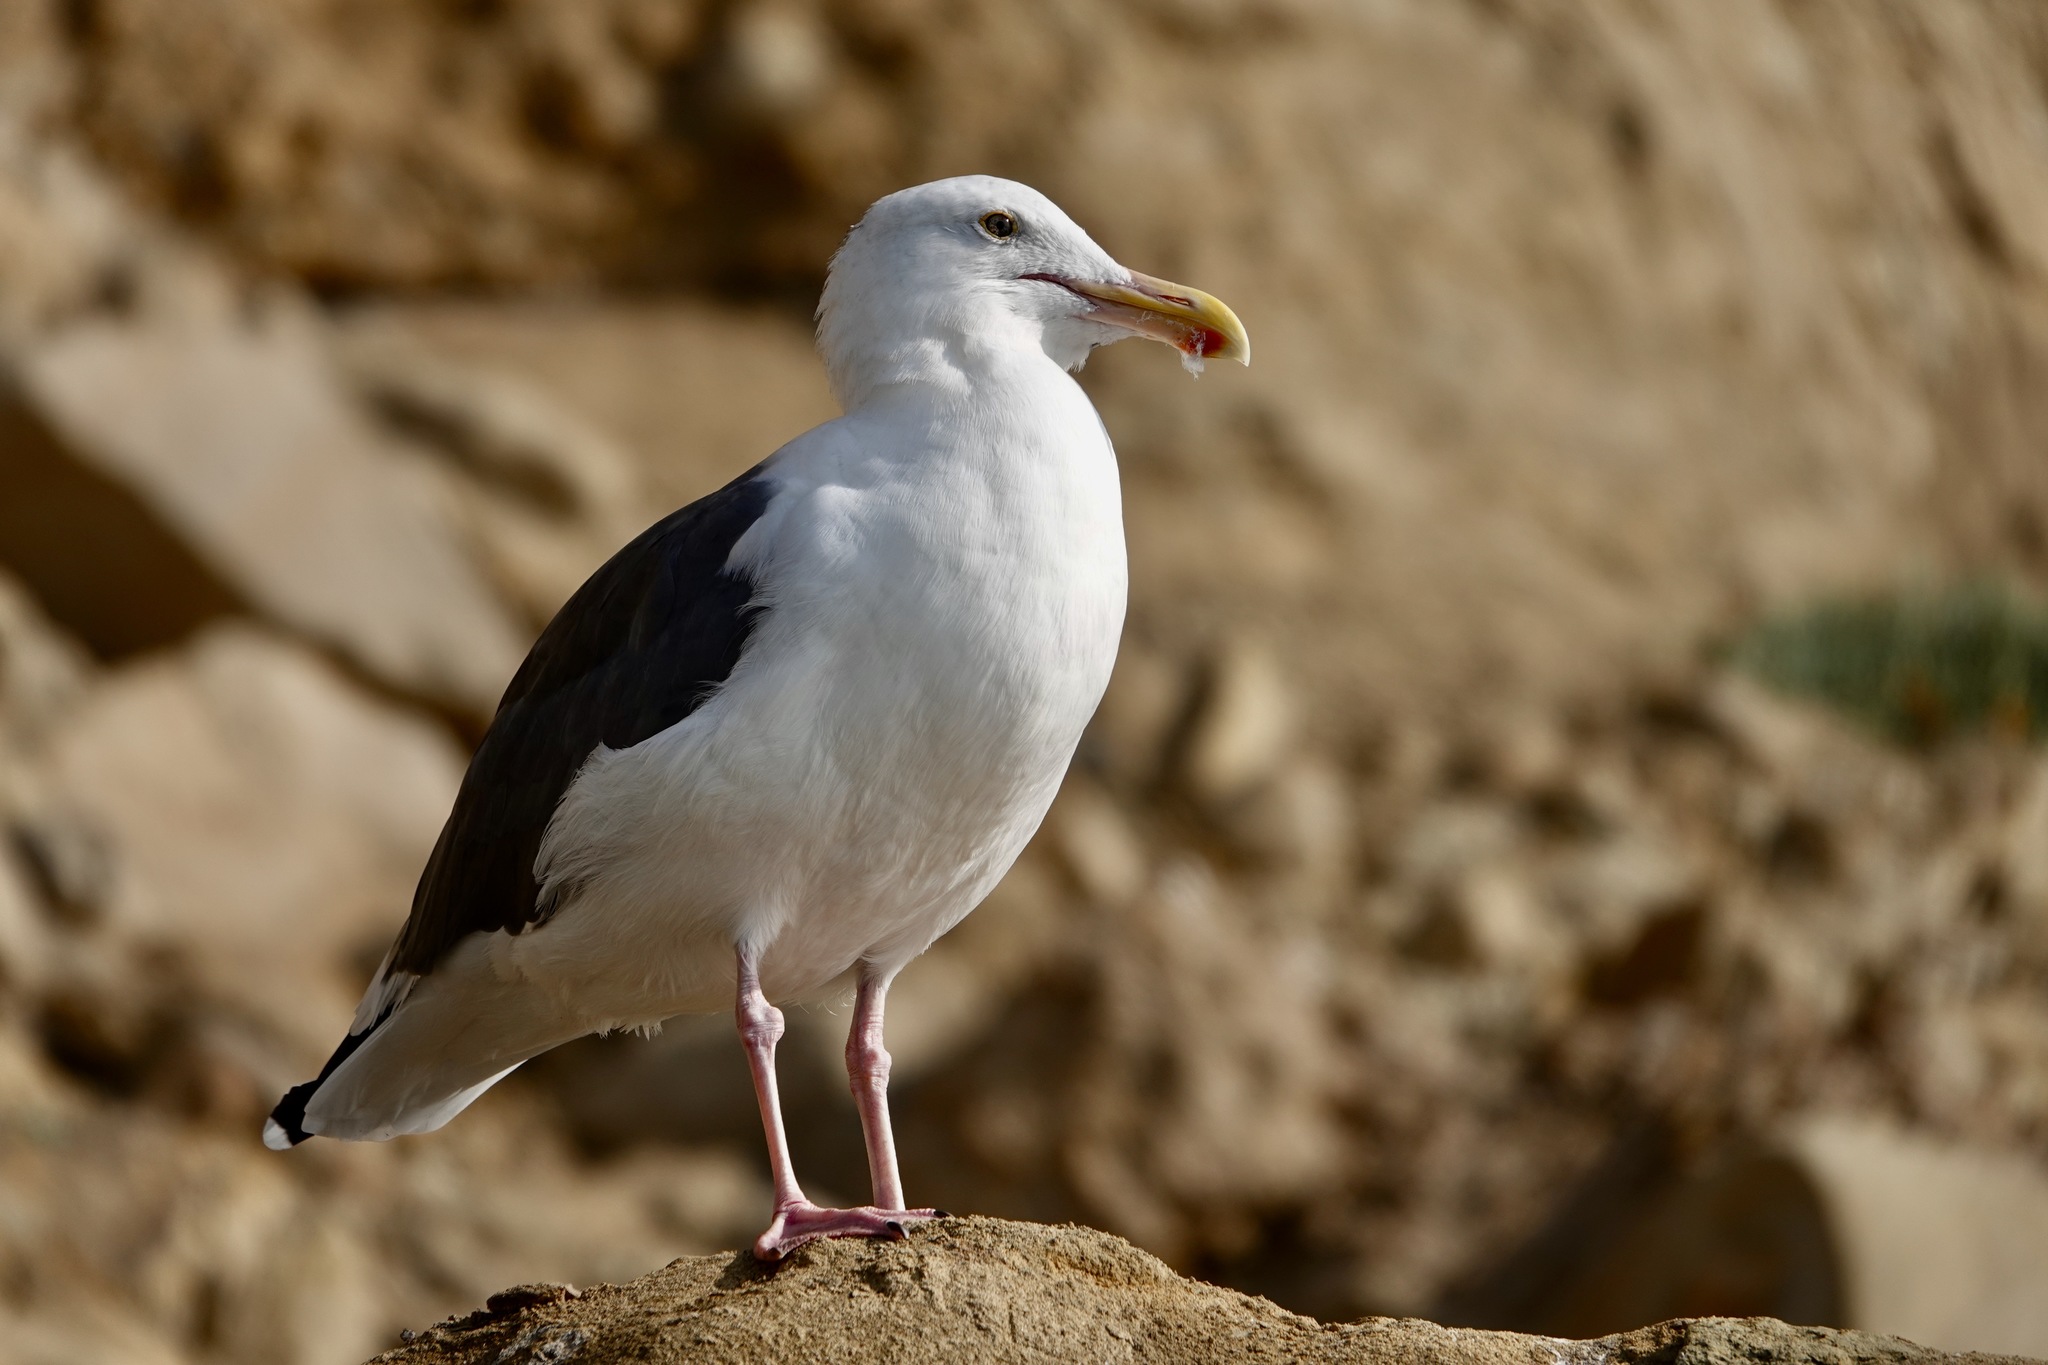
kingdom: Animalia
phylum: Chordata
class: Aves
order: Charadriiformes
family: Laridae
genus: Larus
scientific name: Larus occidentalis
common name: Western gull
